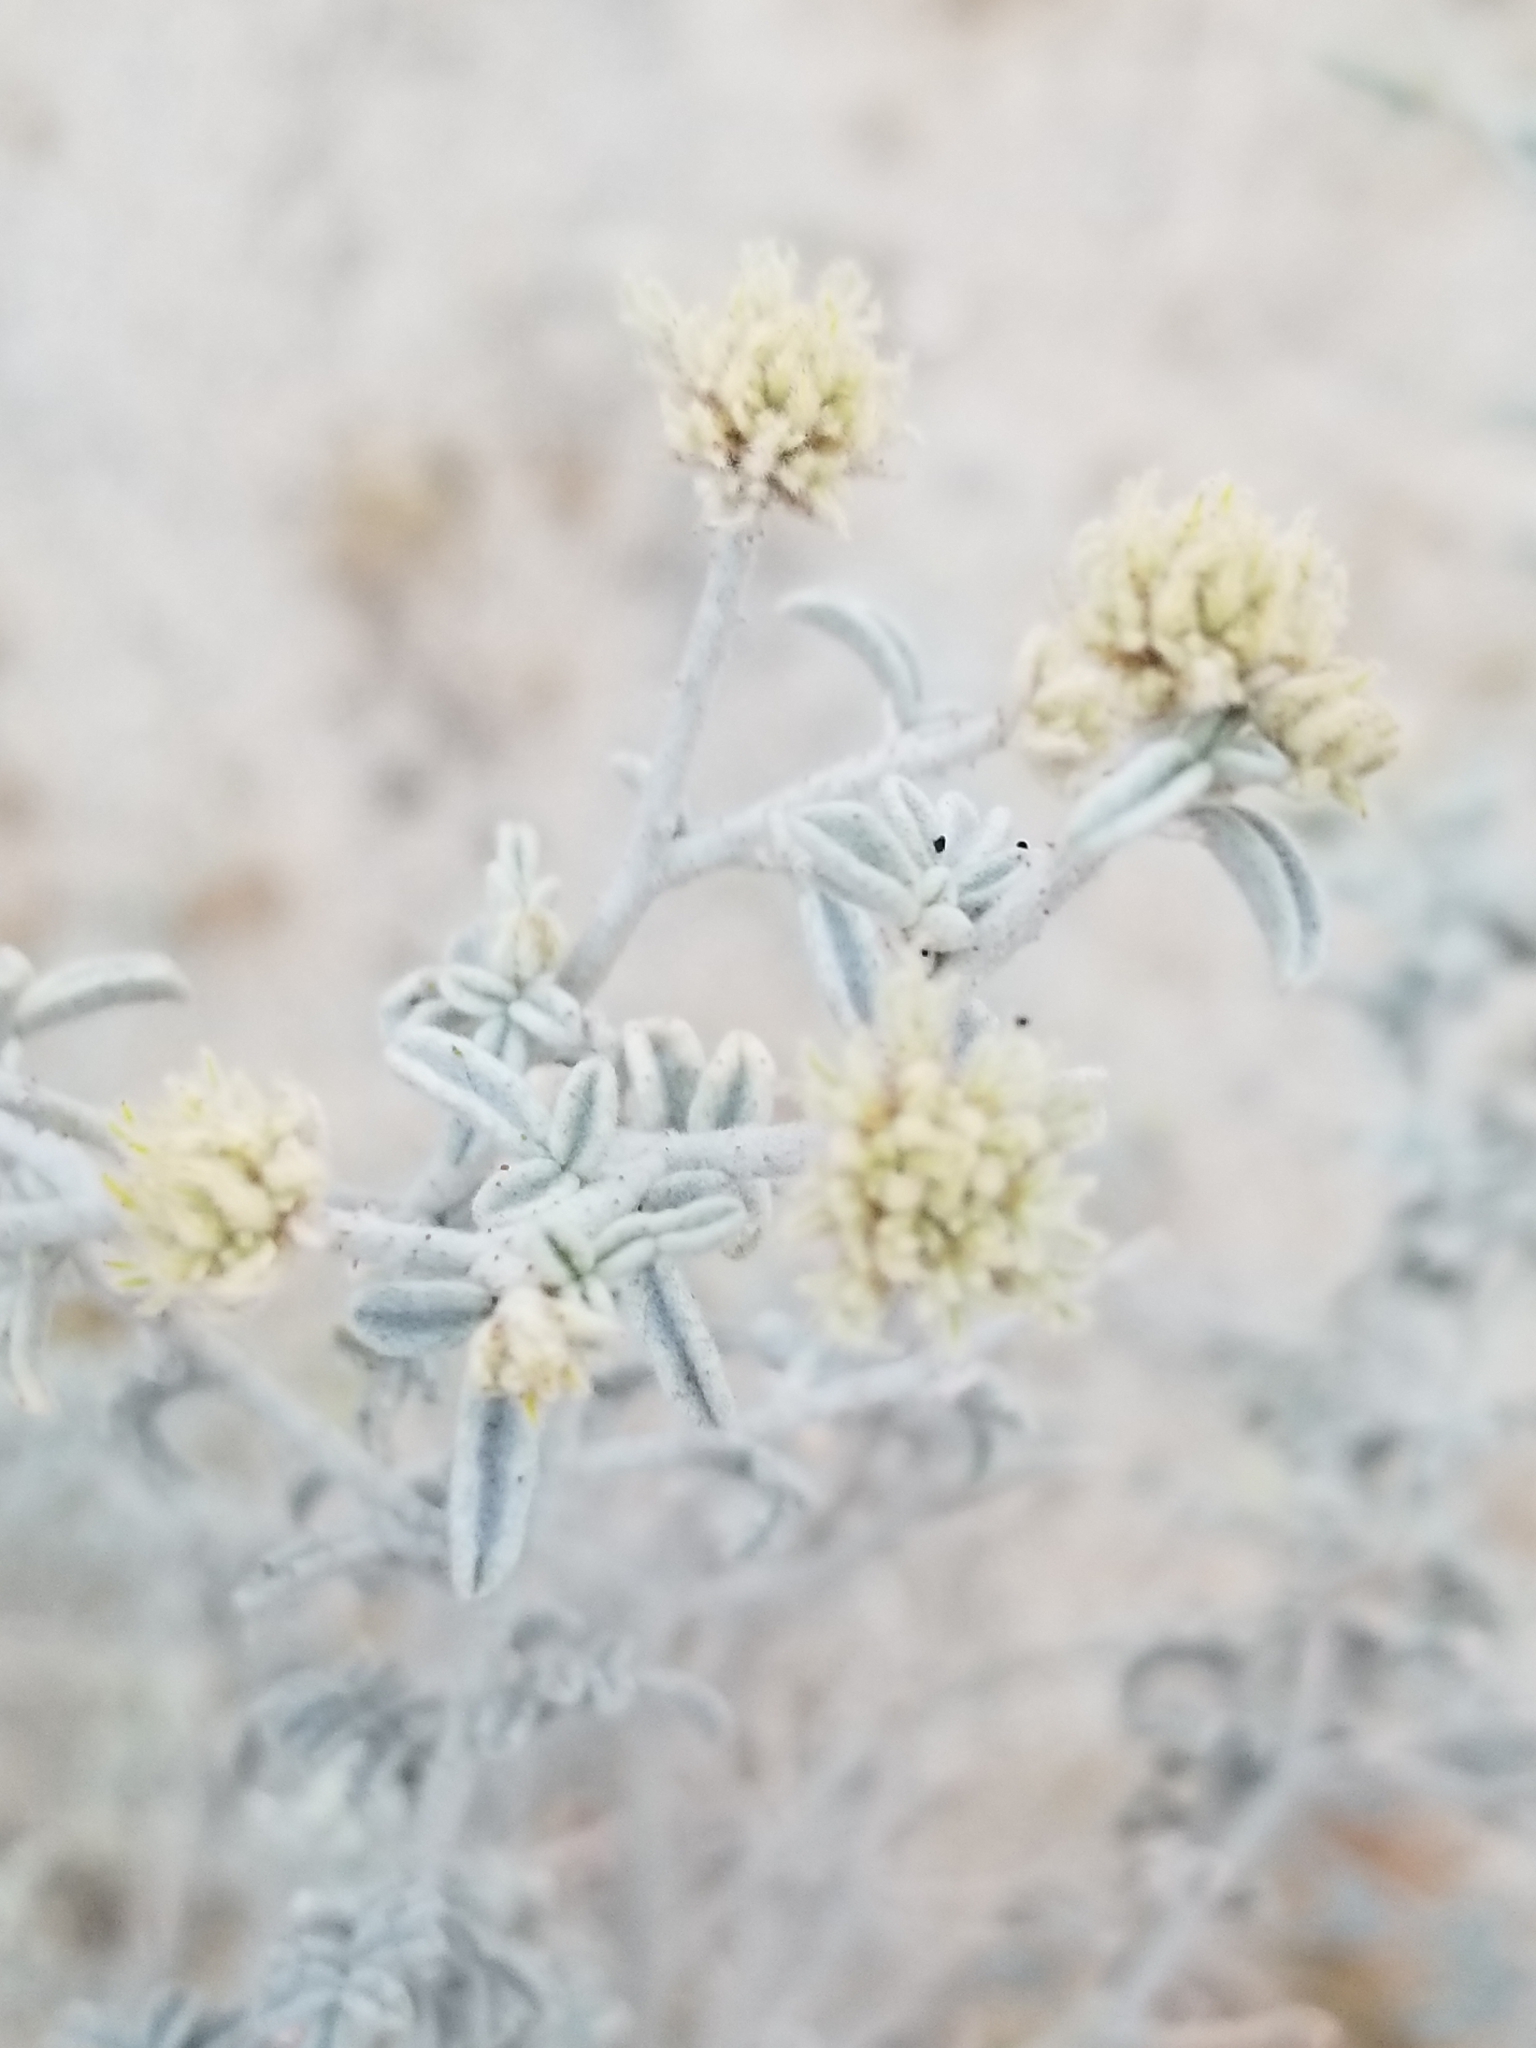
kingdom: Plantae
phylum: Tracheophyta
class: Magnoliopsida
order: Fabales
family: Fabaceae
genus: Psorothamnus
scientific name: Psorothamnus emoryi
